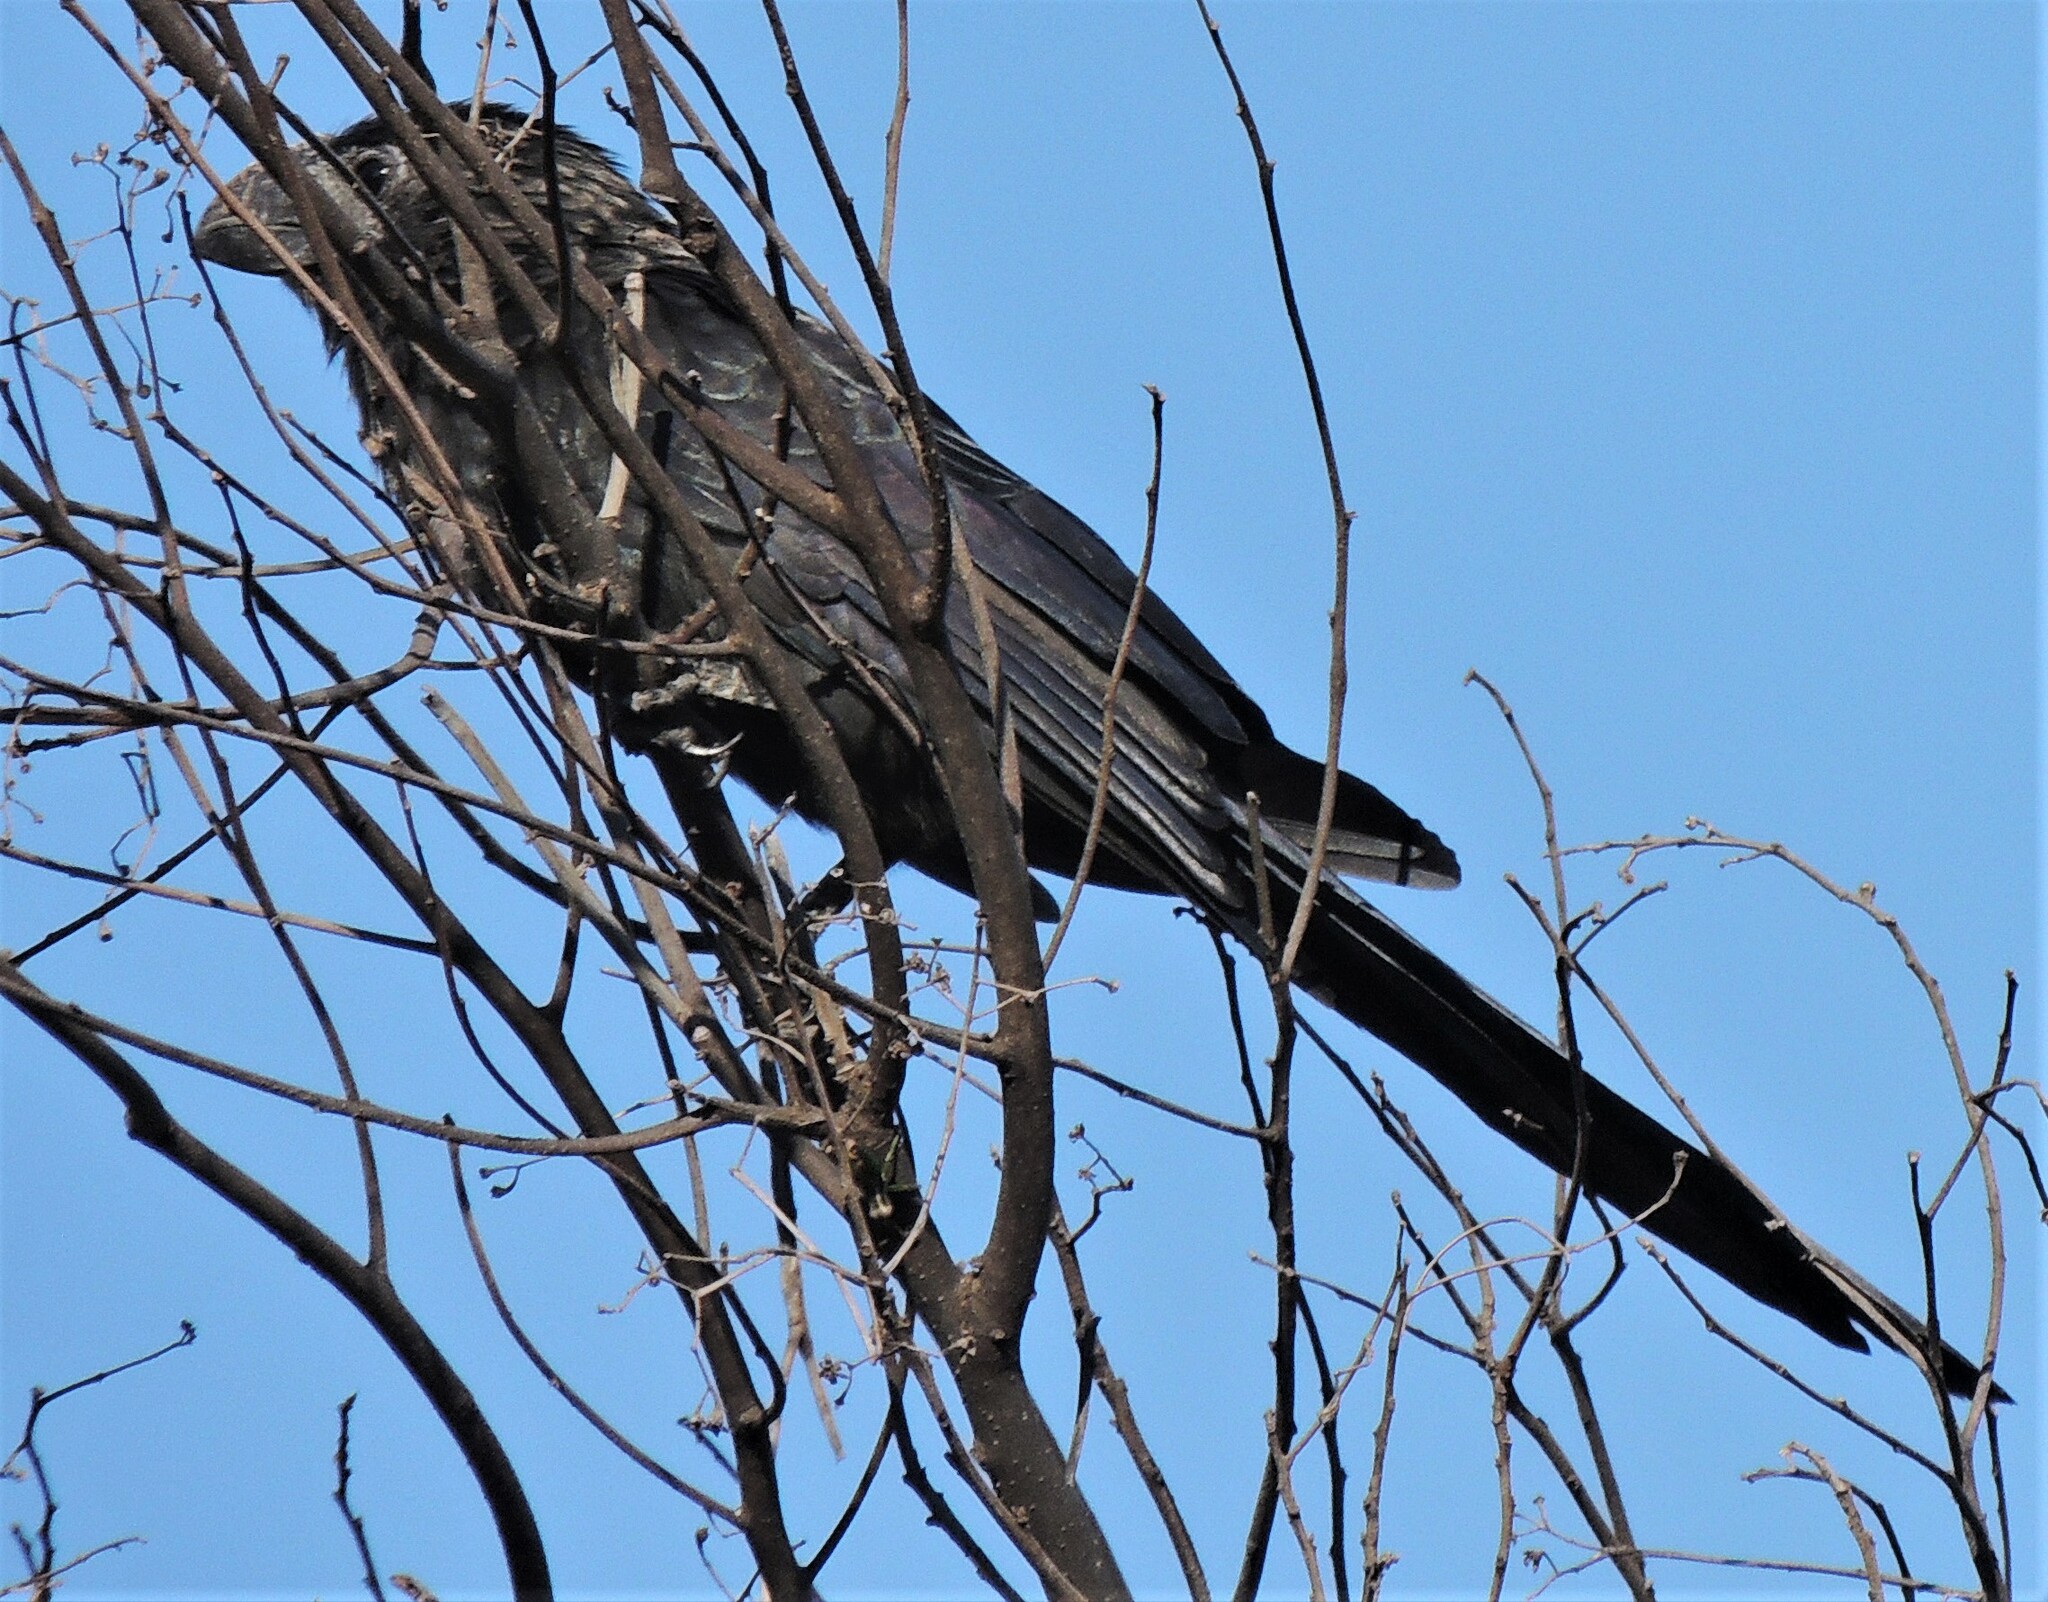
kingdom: Animalia
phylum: Chordata
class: Aves
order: Cuculiformes
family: Cuculidae
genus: Crotophaga
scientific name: Crotophaga ani
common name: Smooth-billed ani
